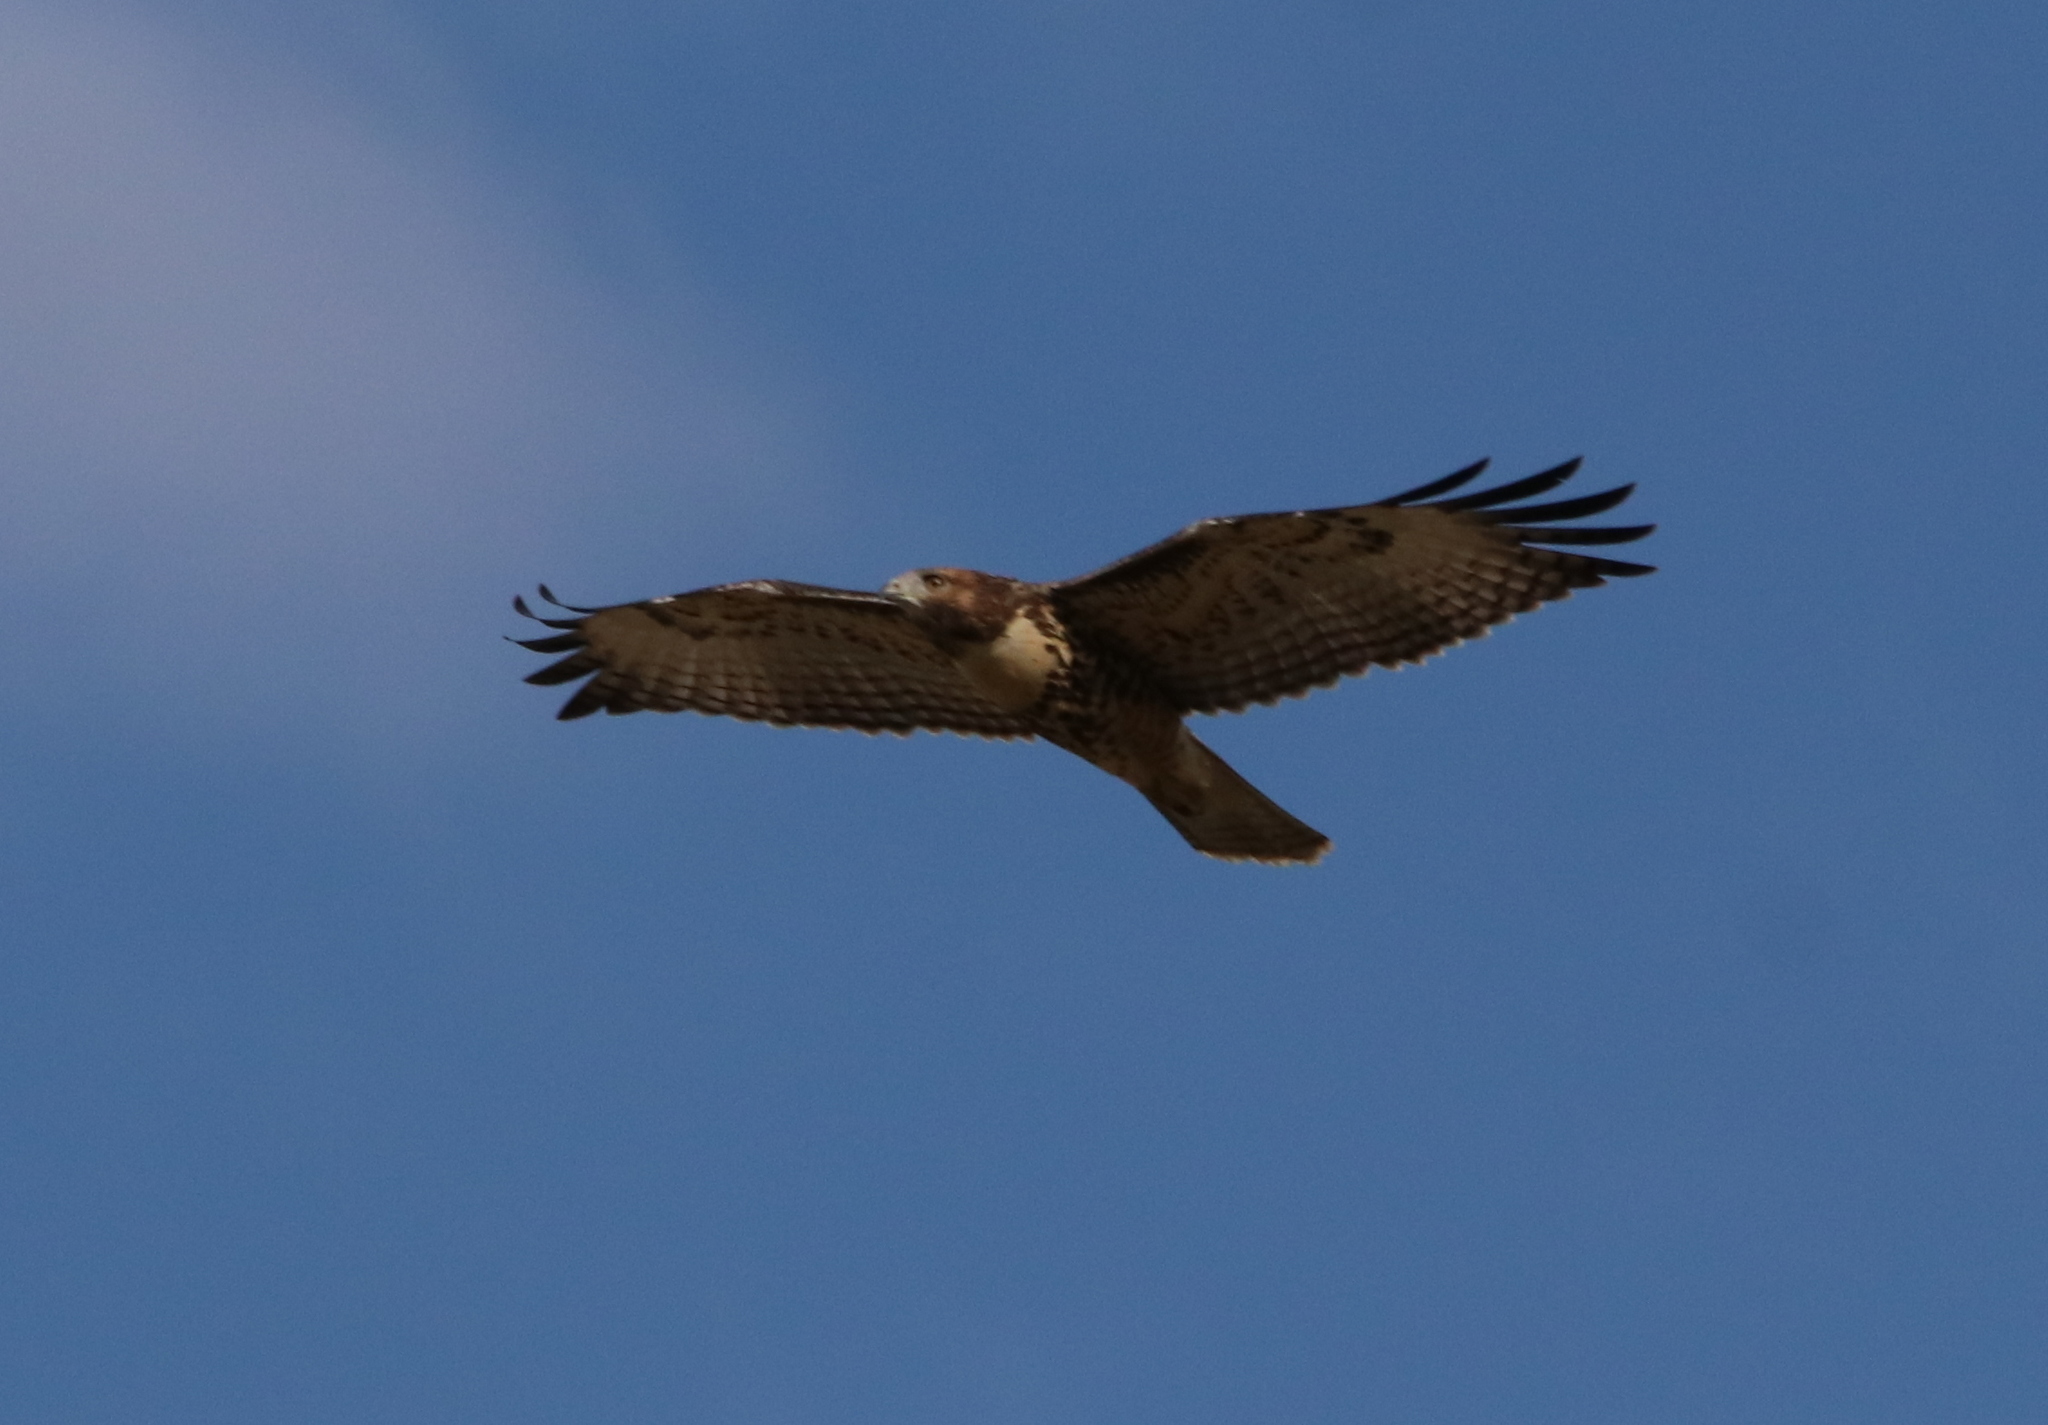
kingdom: Animalia
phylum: Chordata
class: Aves
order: Accipitriformes
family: Accipitridae
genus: Buteo
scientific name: Buteo jamaicensis
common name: Red-tailed hawk
